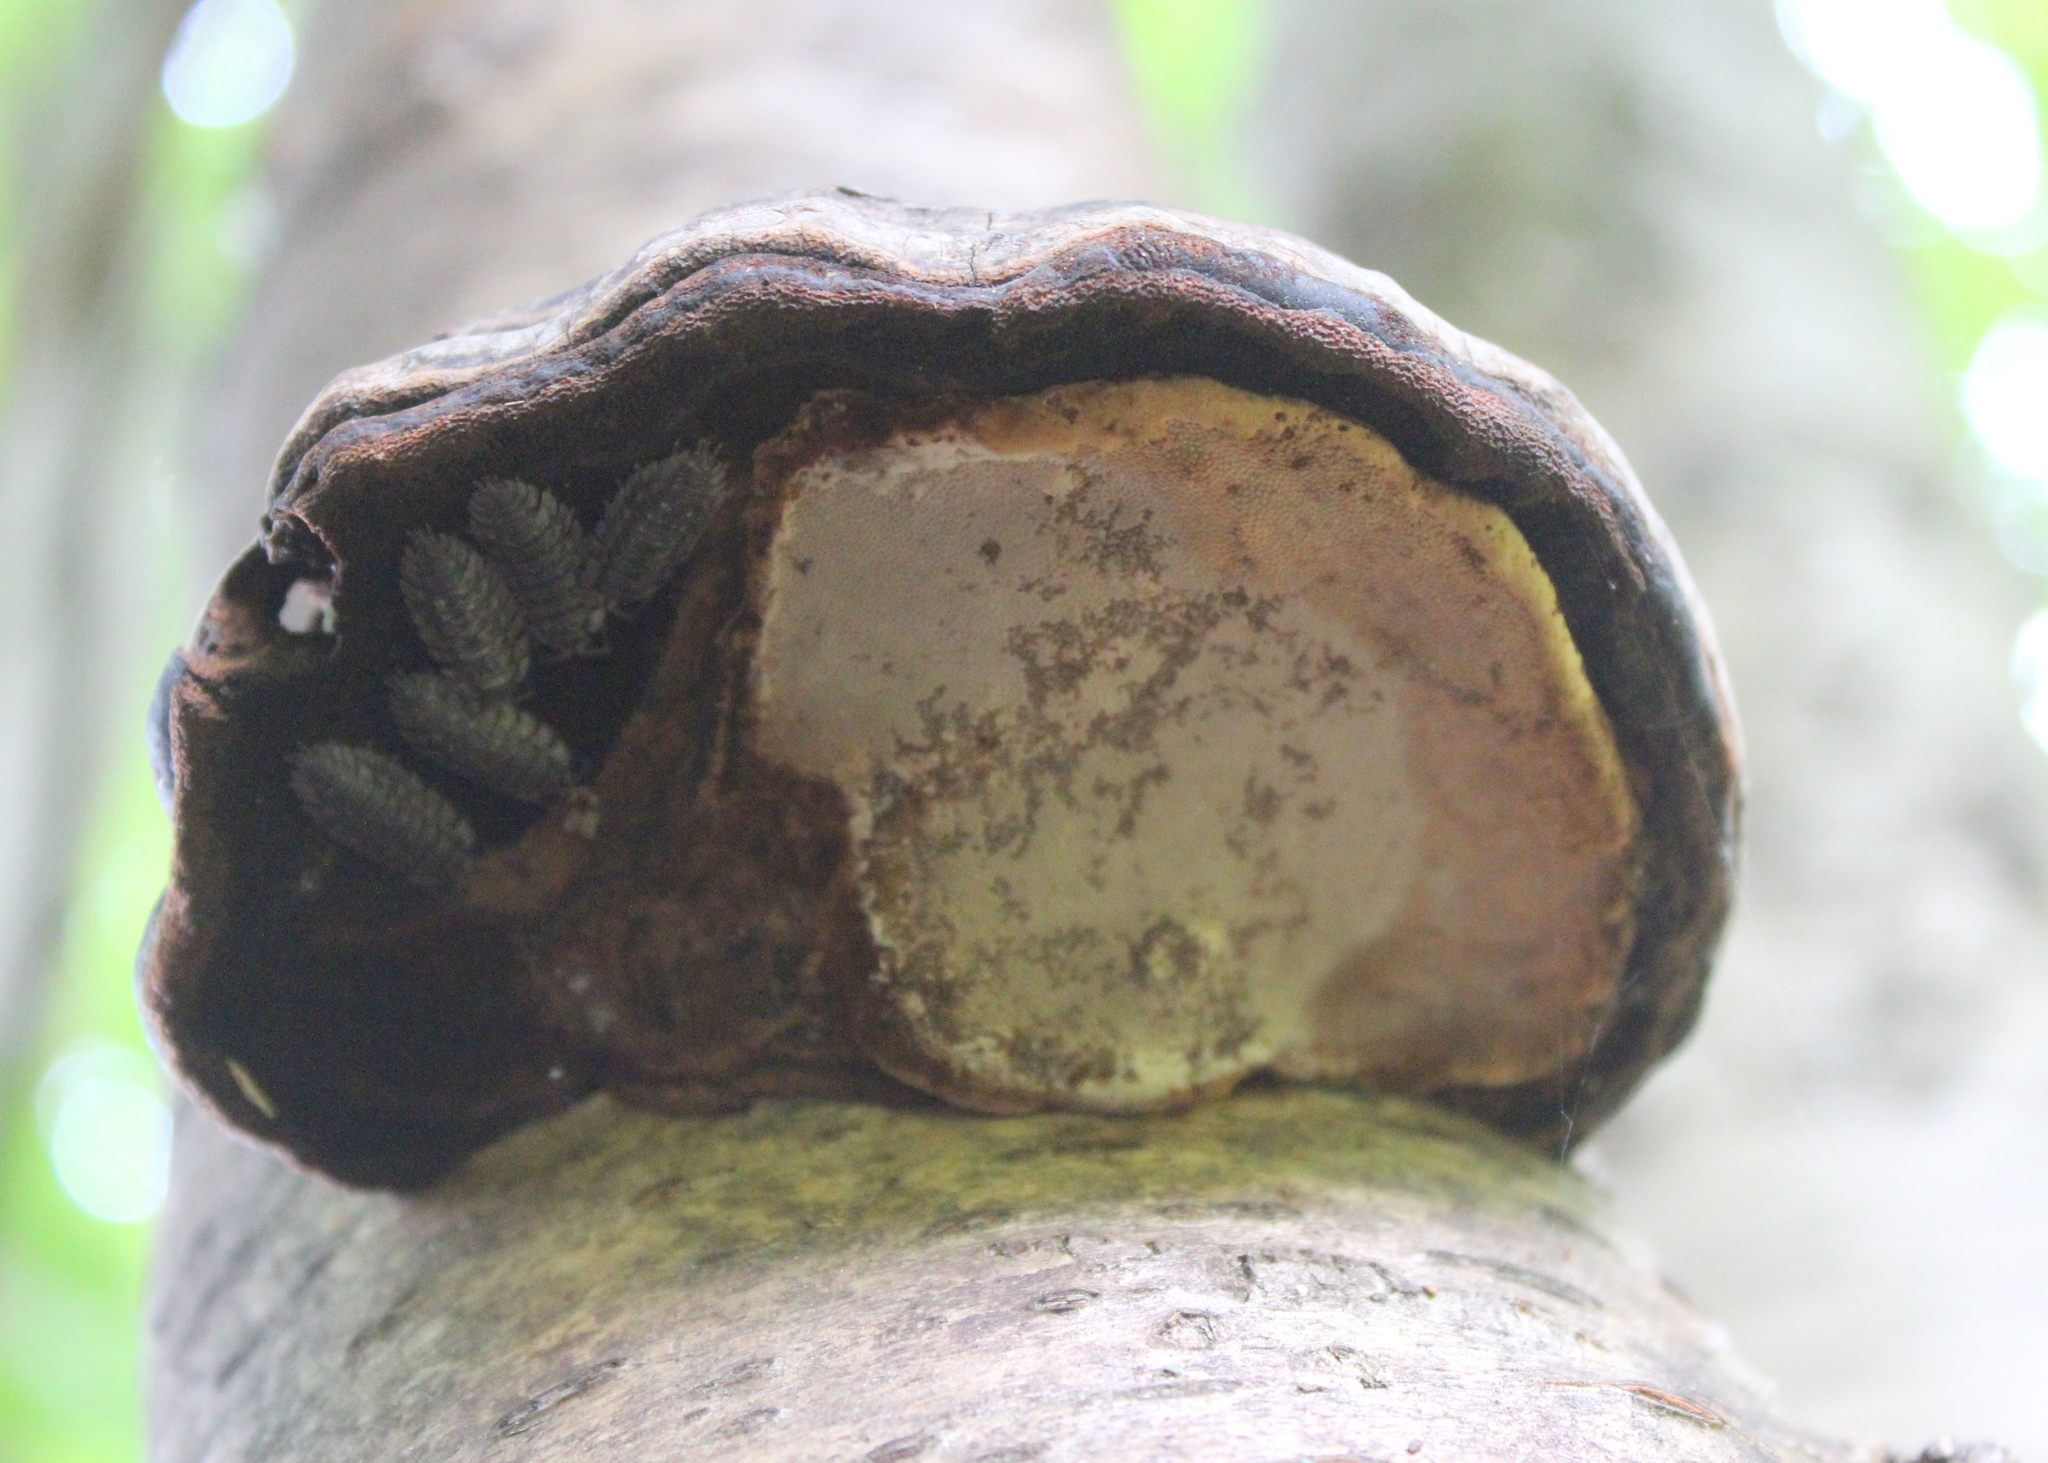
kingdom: Fungi
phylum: Basidiomycota
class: Agaricomycetes
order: Polyporales
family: Polyporaceae
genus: Fomes
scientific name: Fomes fomentarius
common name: Hoof fungus
